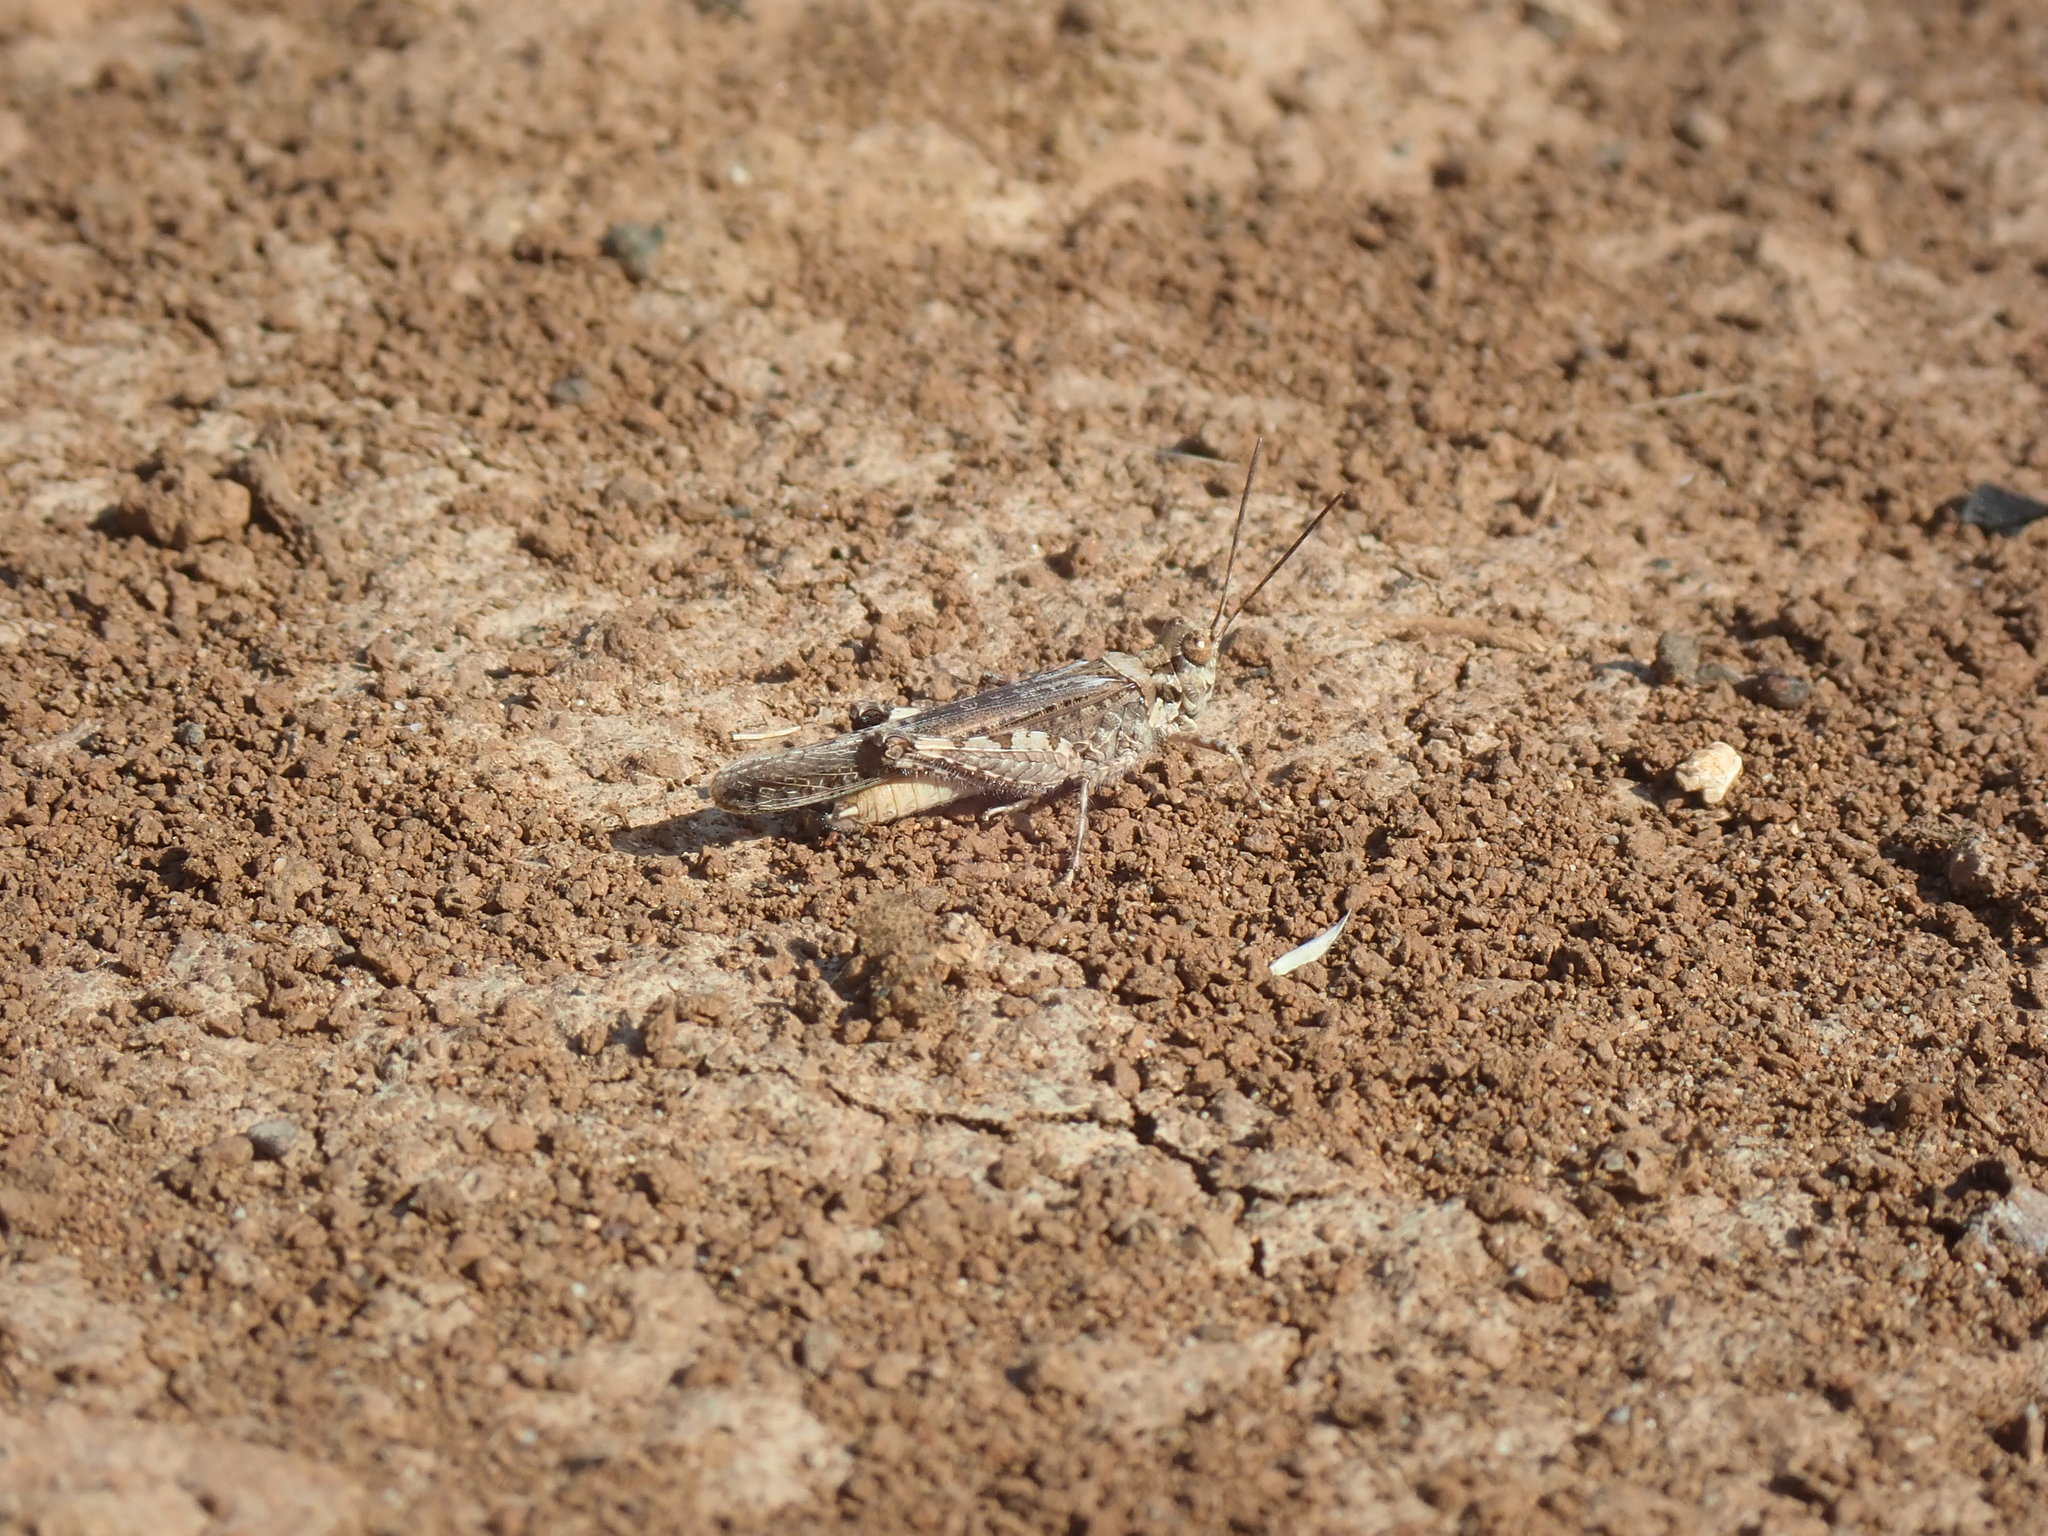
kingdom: Animalia
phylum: Arthropoda
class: Insecta
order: Orthoptera
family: Acrididae
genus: Acrotylus
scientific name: Acrotylus patruelis
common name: Slender burrowing grasshopper
